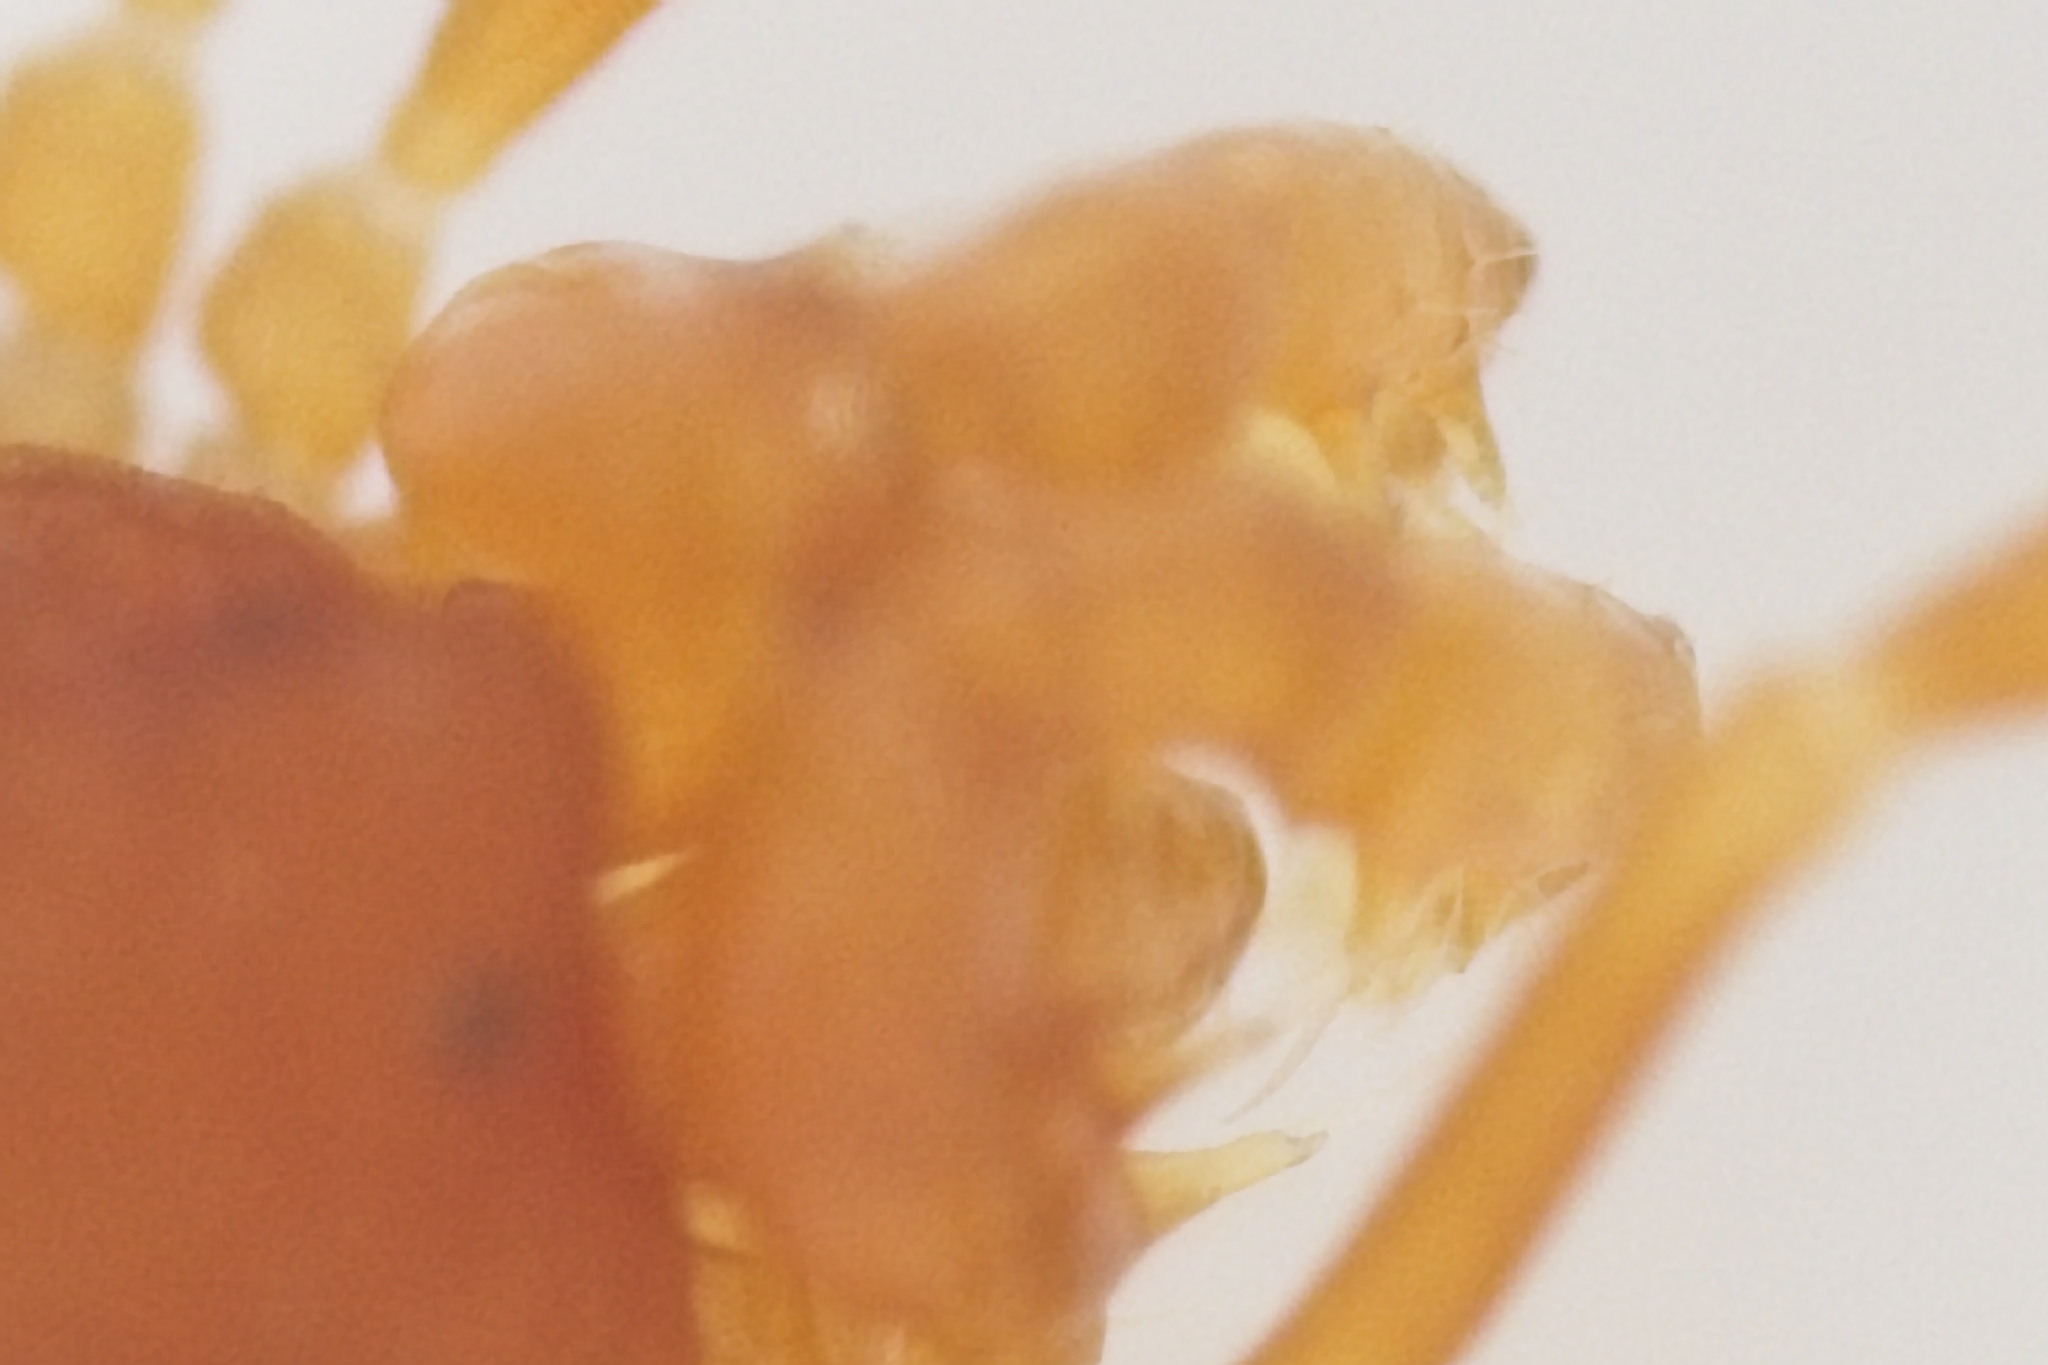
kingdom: Animalia
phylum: Arthropoda
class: Arachnida
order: Opiliones
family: Phalangodidae
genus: Megacina
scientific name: Megacina cockerelli
